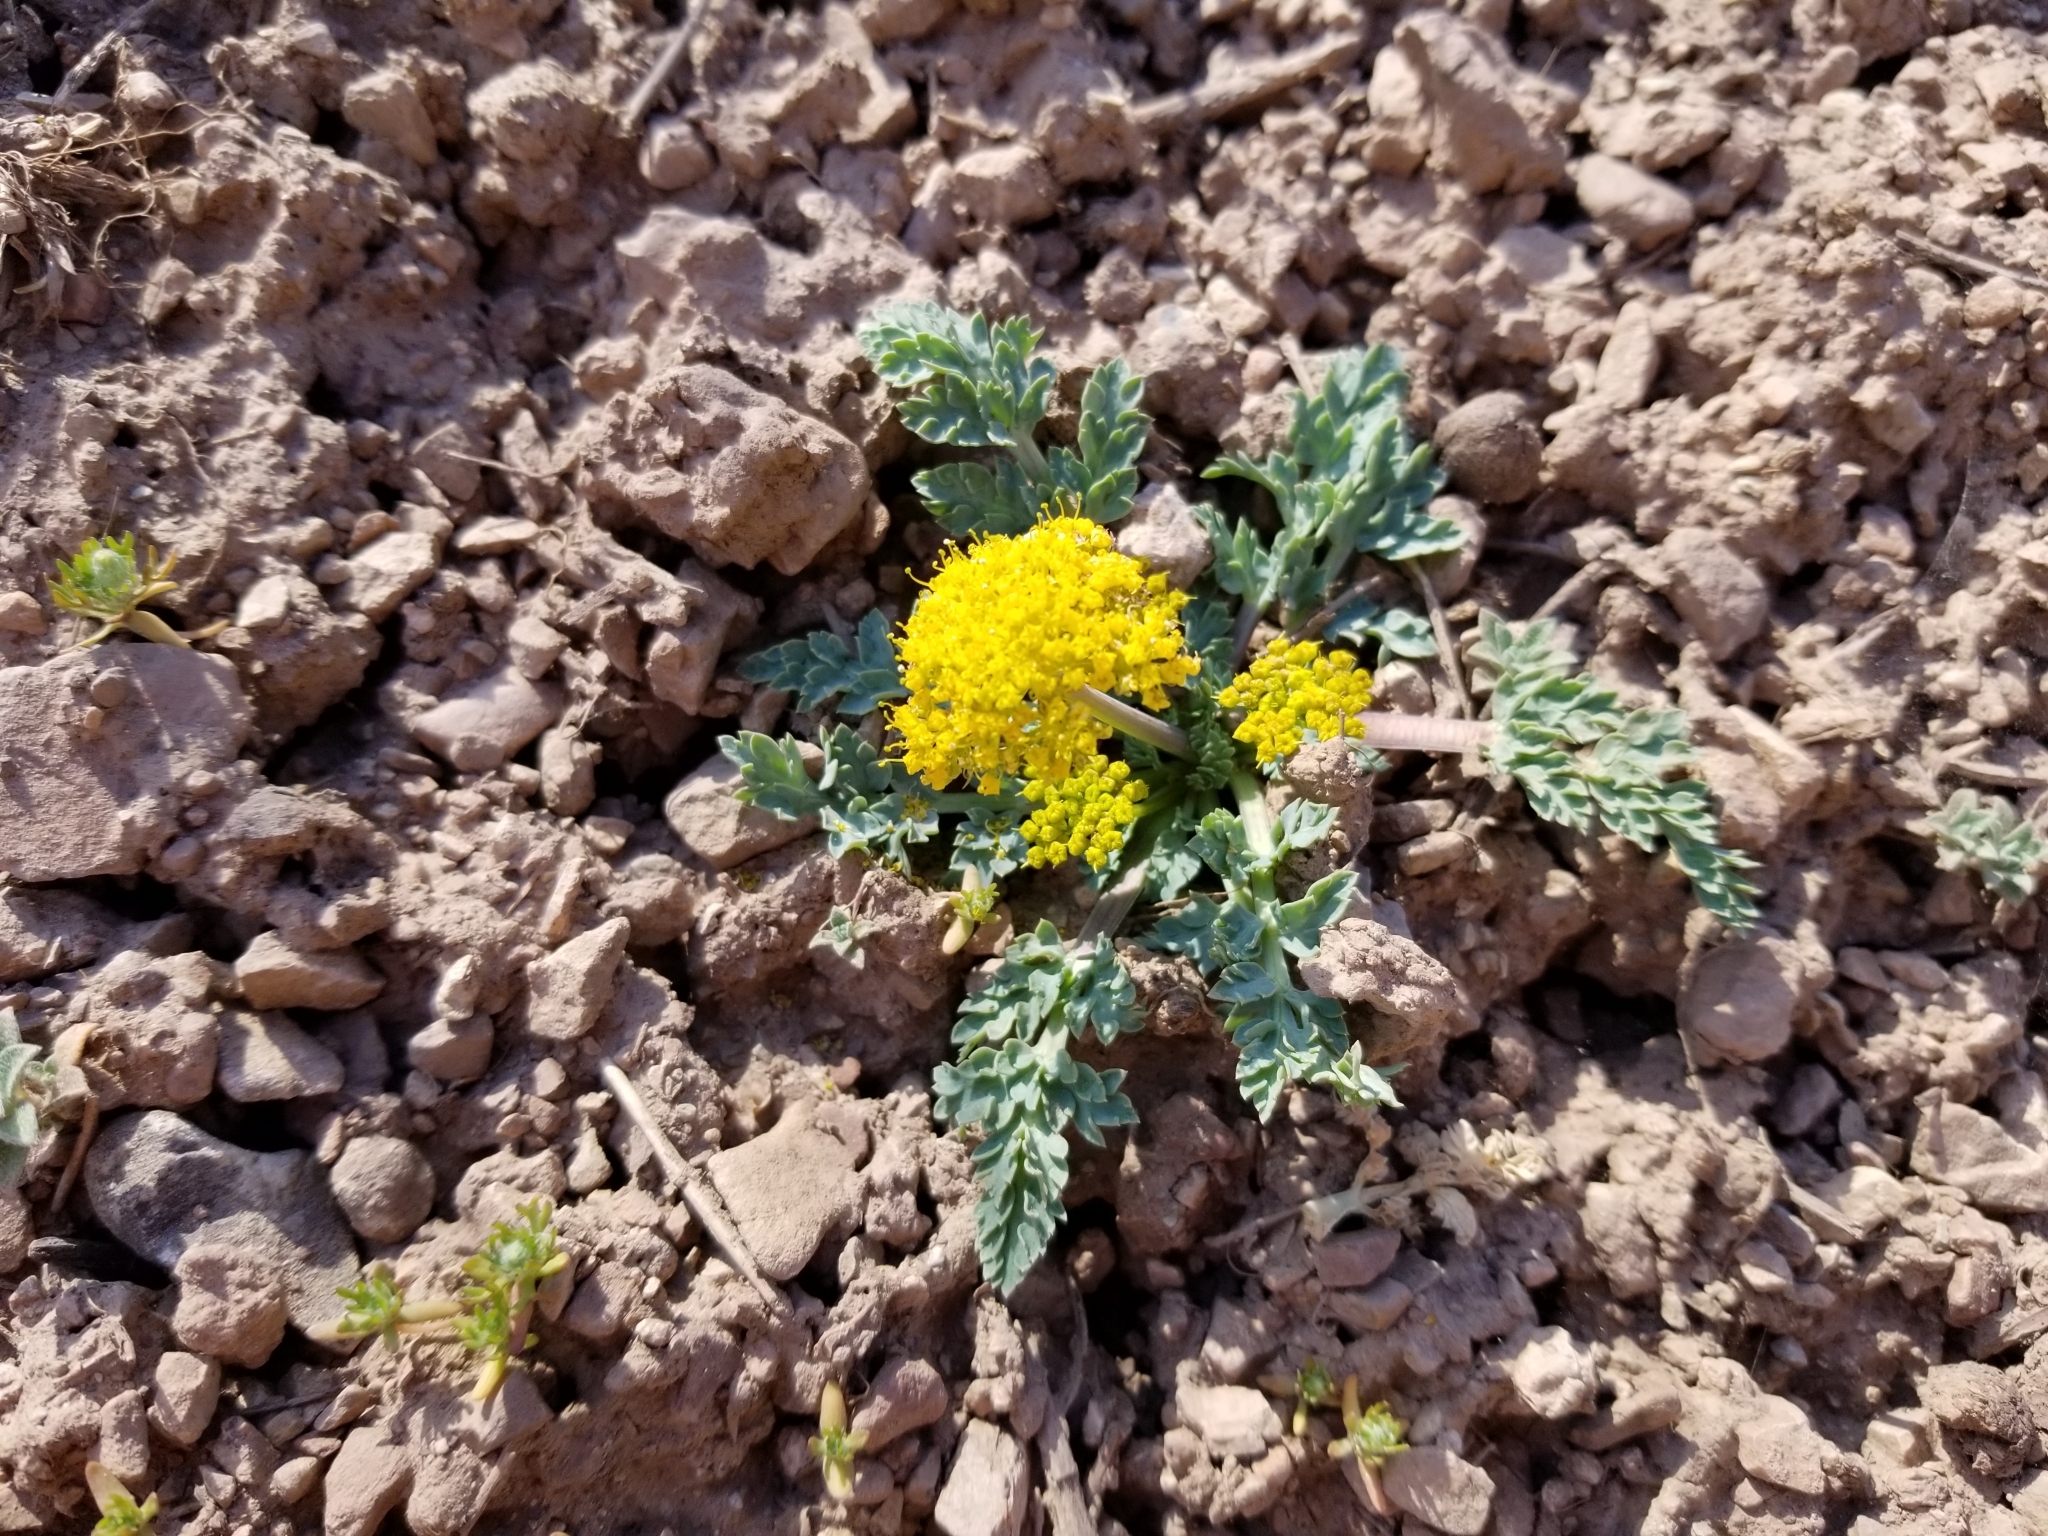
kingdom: Plantae
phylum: Tracheophyta
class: Magnoliopsida
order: Apiales
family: Apiaceae
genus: Aulospermum
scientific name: Aulospermum longipes
